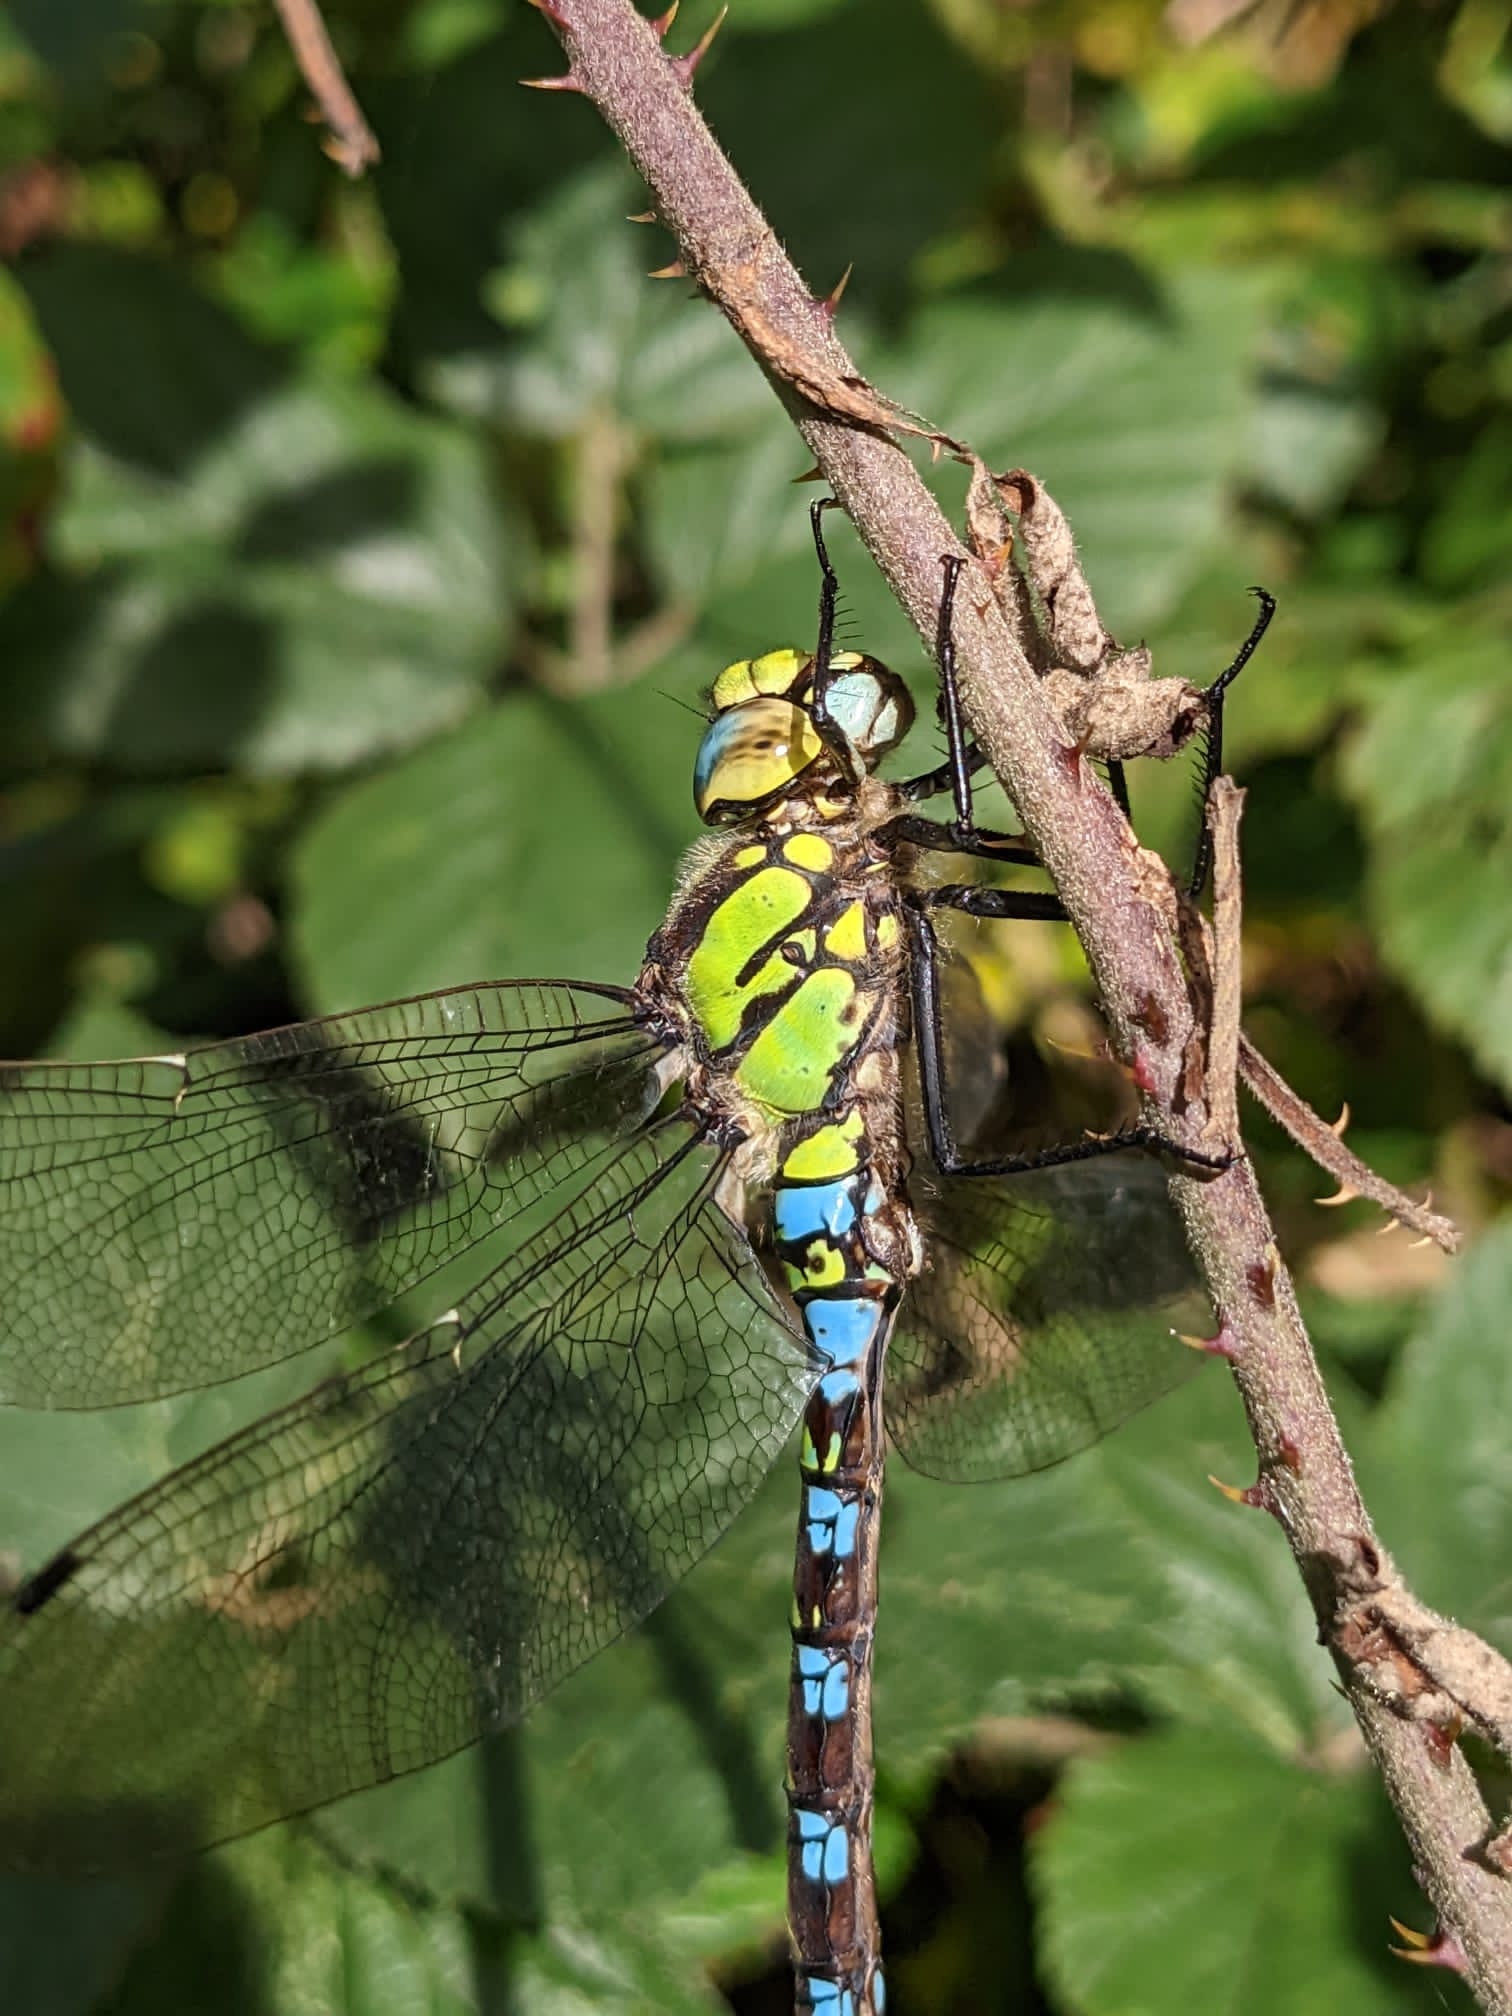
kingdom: Animalia
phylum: Arthropoda
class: Insecta
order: Odonata
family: Aeshnidae
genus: Aeshna
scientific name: Aeshna cyanea
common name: Southern hawker
